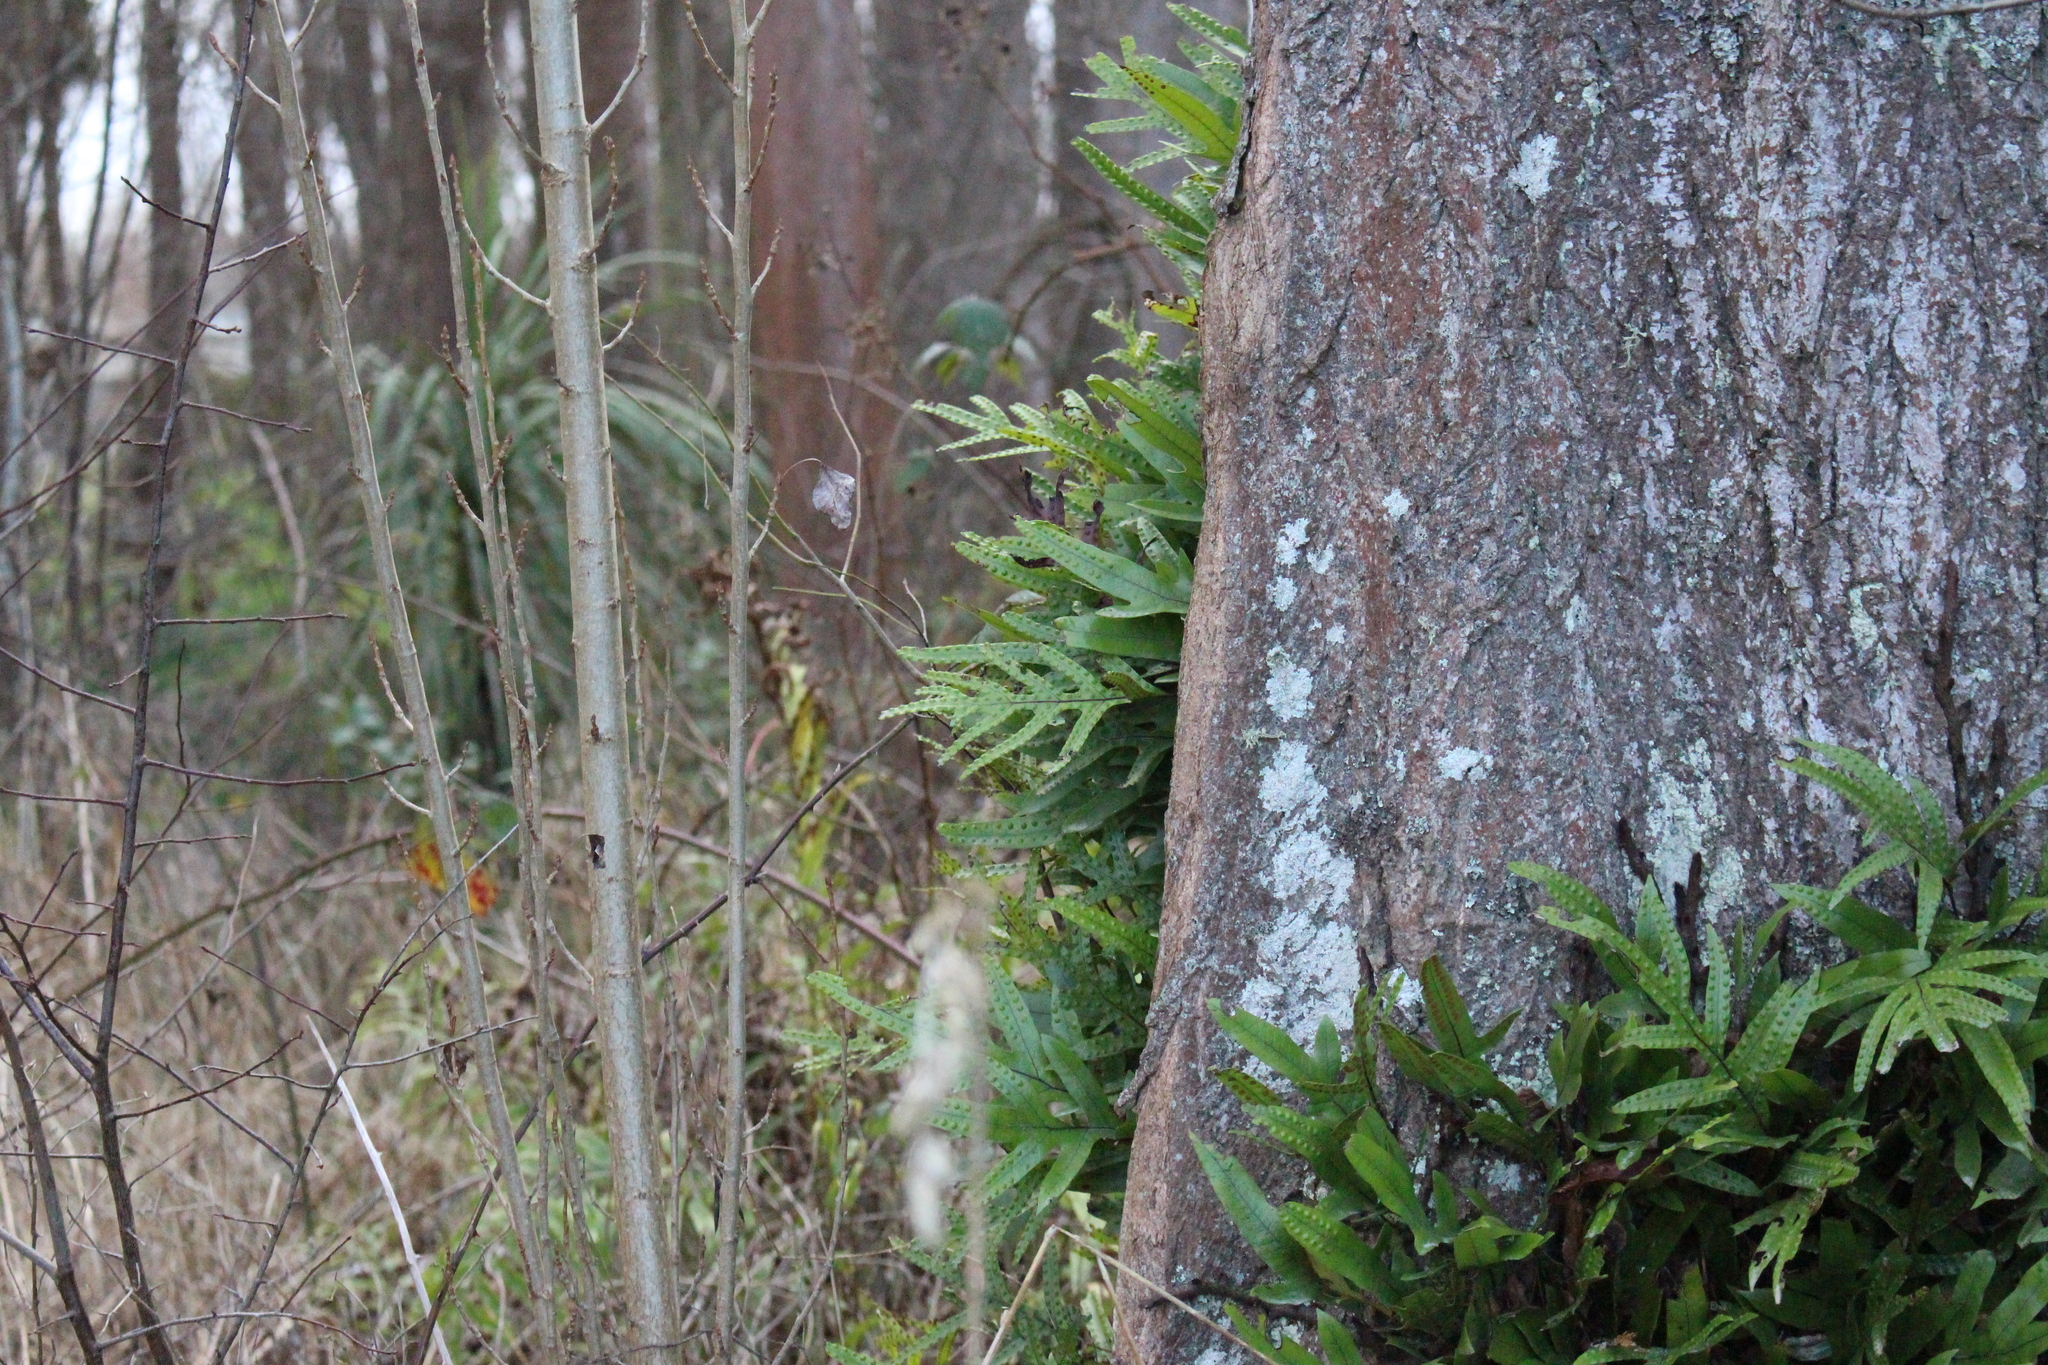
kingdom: Plantae
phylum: Tracheophyta
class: Polypodiopsida
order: Polypodiales
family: Polypodiaceae
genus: Lecanopteris
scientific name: Lecanopteris pustulata
